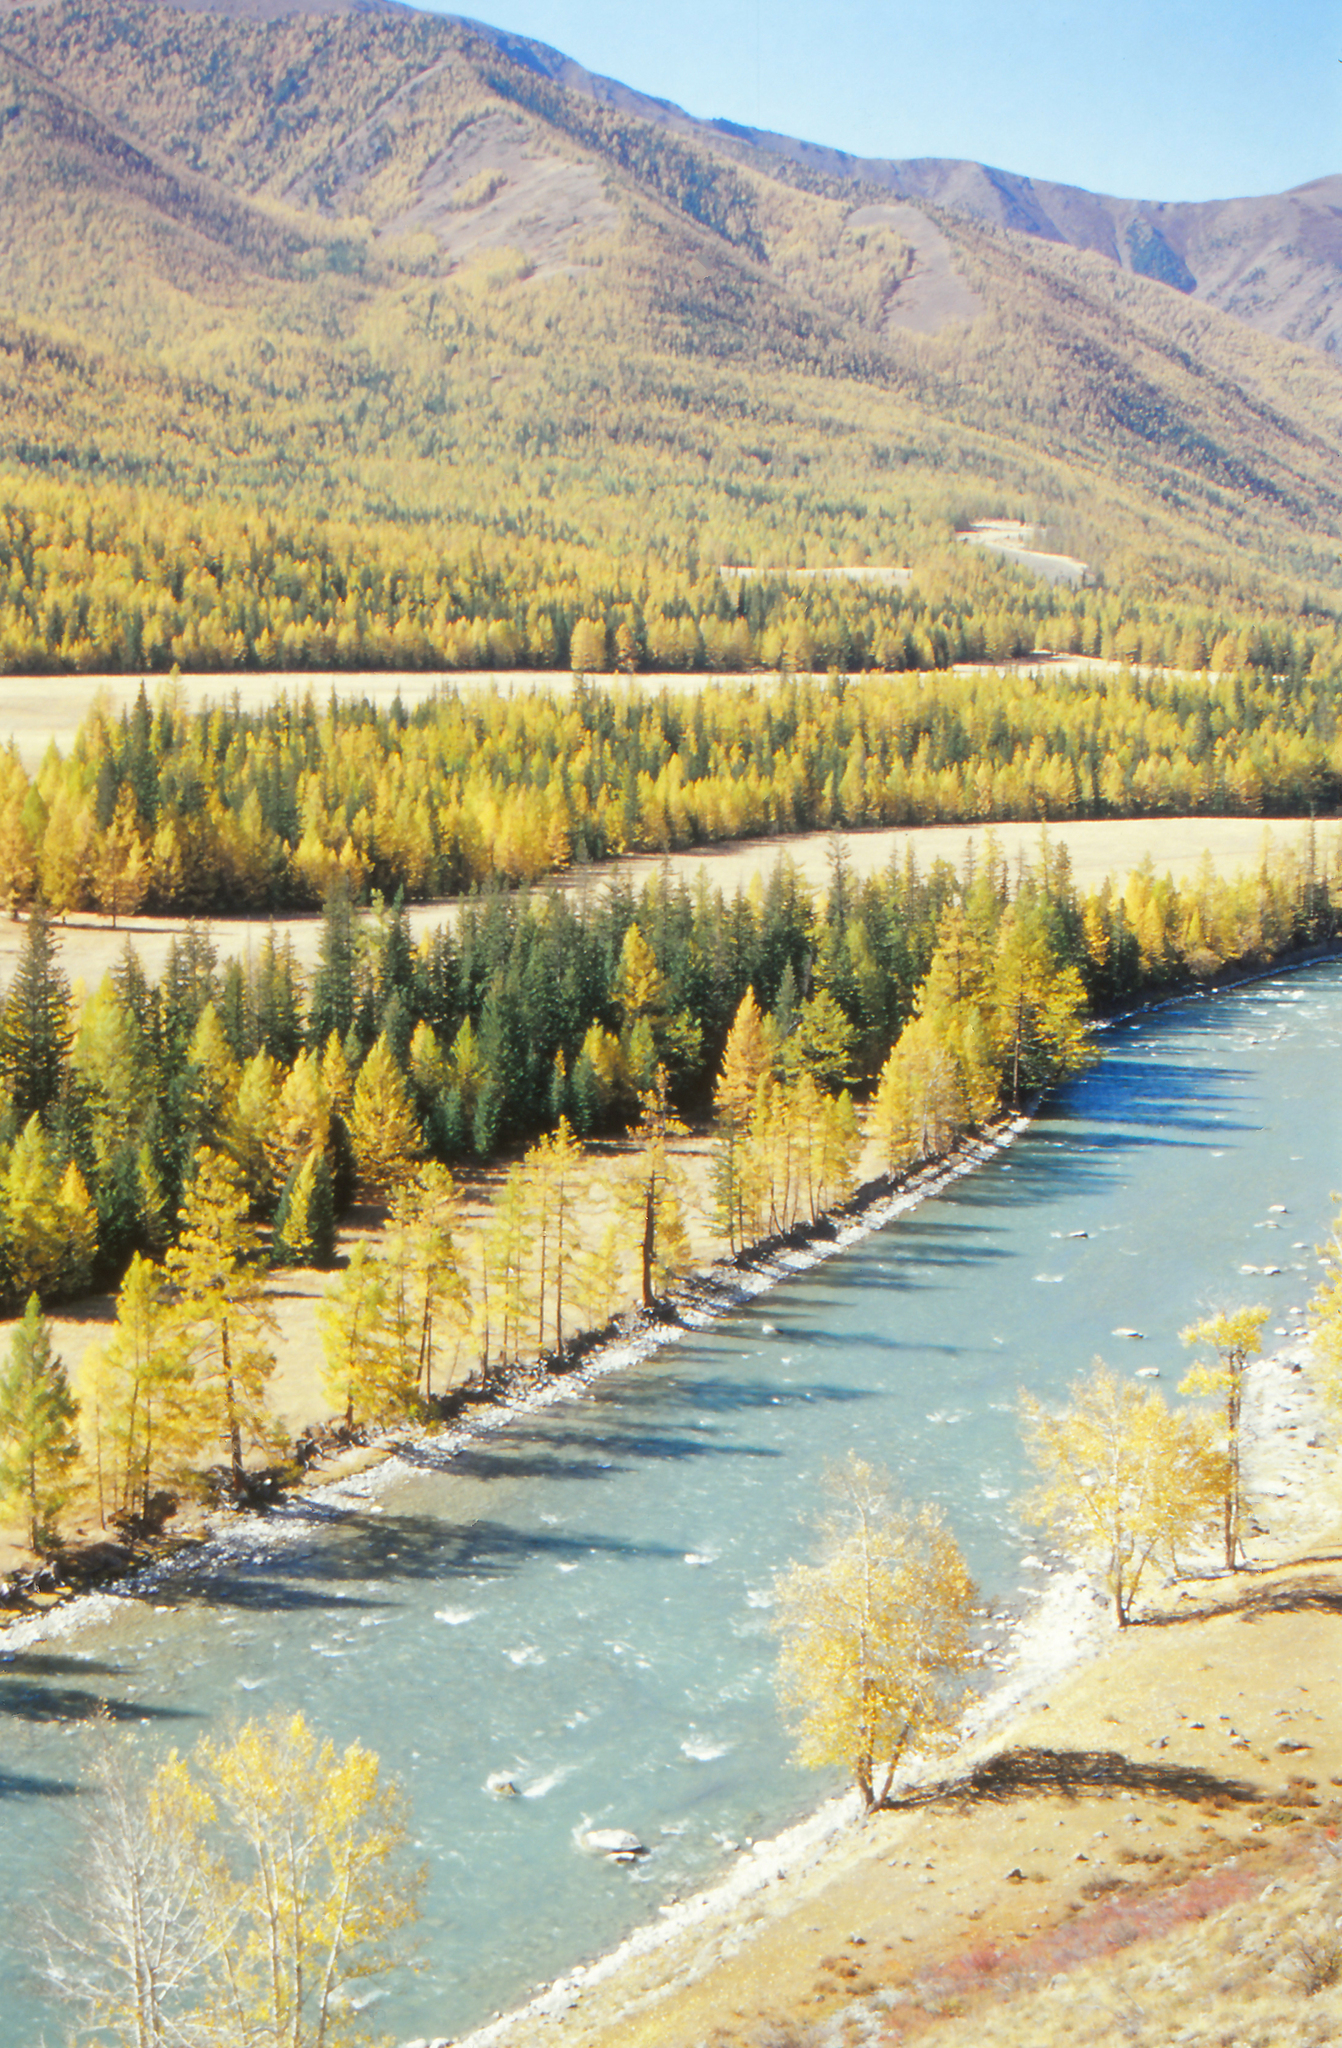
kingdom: Plantae
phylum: Tracheophyta
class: Pinopsida
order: Pinales
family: Pinaceae
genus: Picea
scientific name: Picea obovata
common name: Siberian spruce
